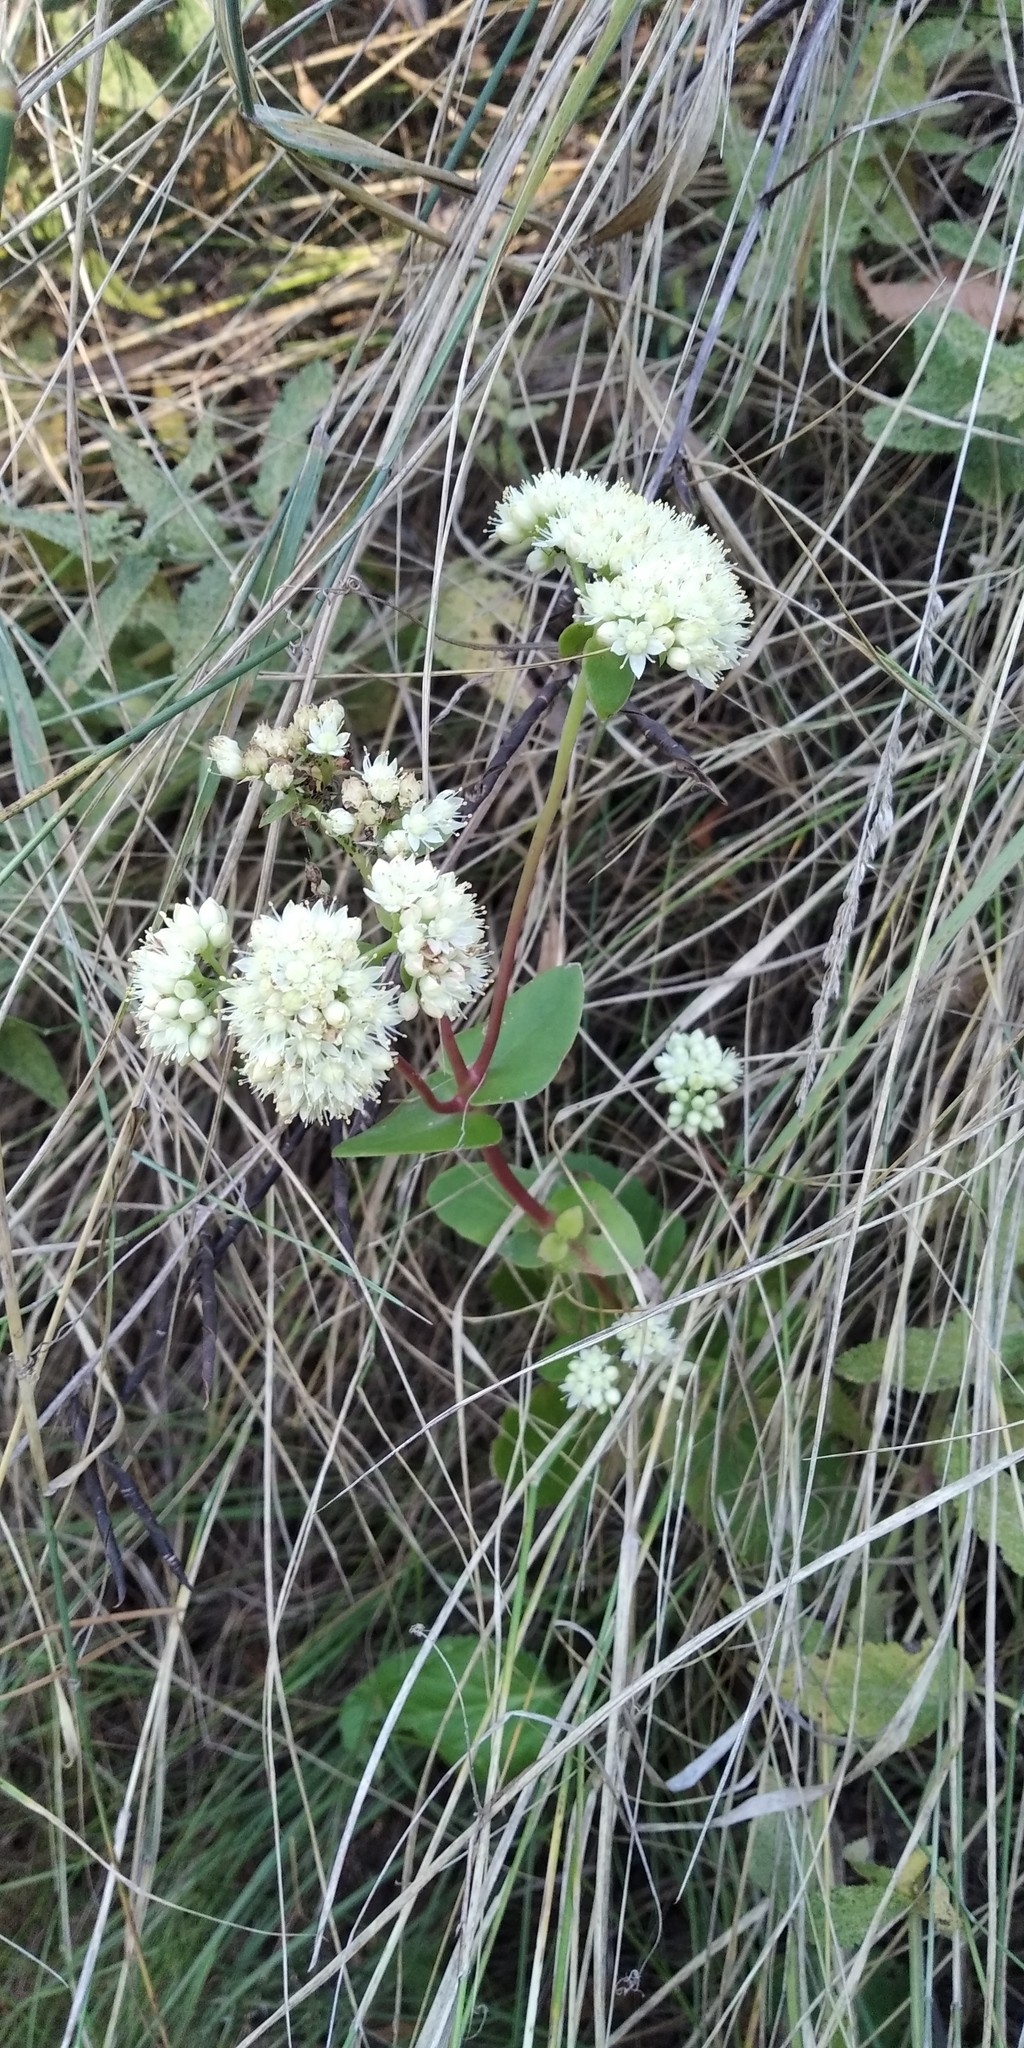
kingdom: Plantae
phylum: Tracheophyta
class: Magnoliopsida
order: Saxifragales
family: Crassulaceae
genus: Hylotelephium
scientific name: Hylotelephium maximum
